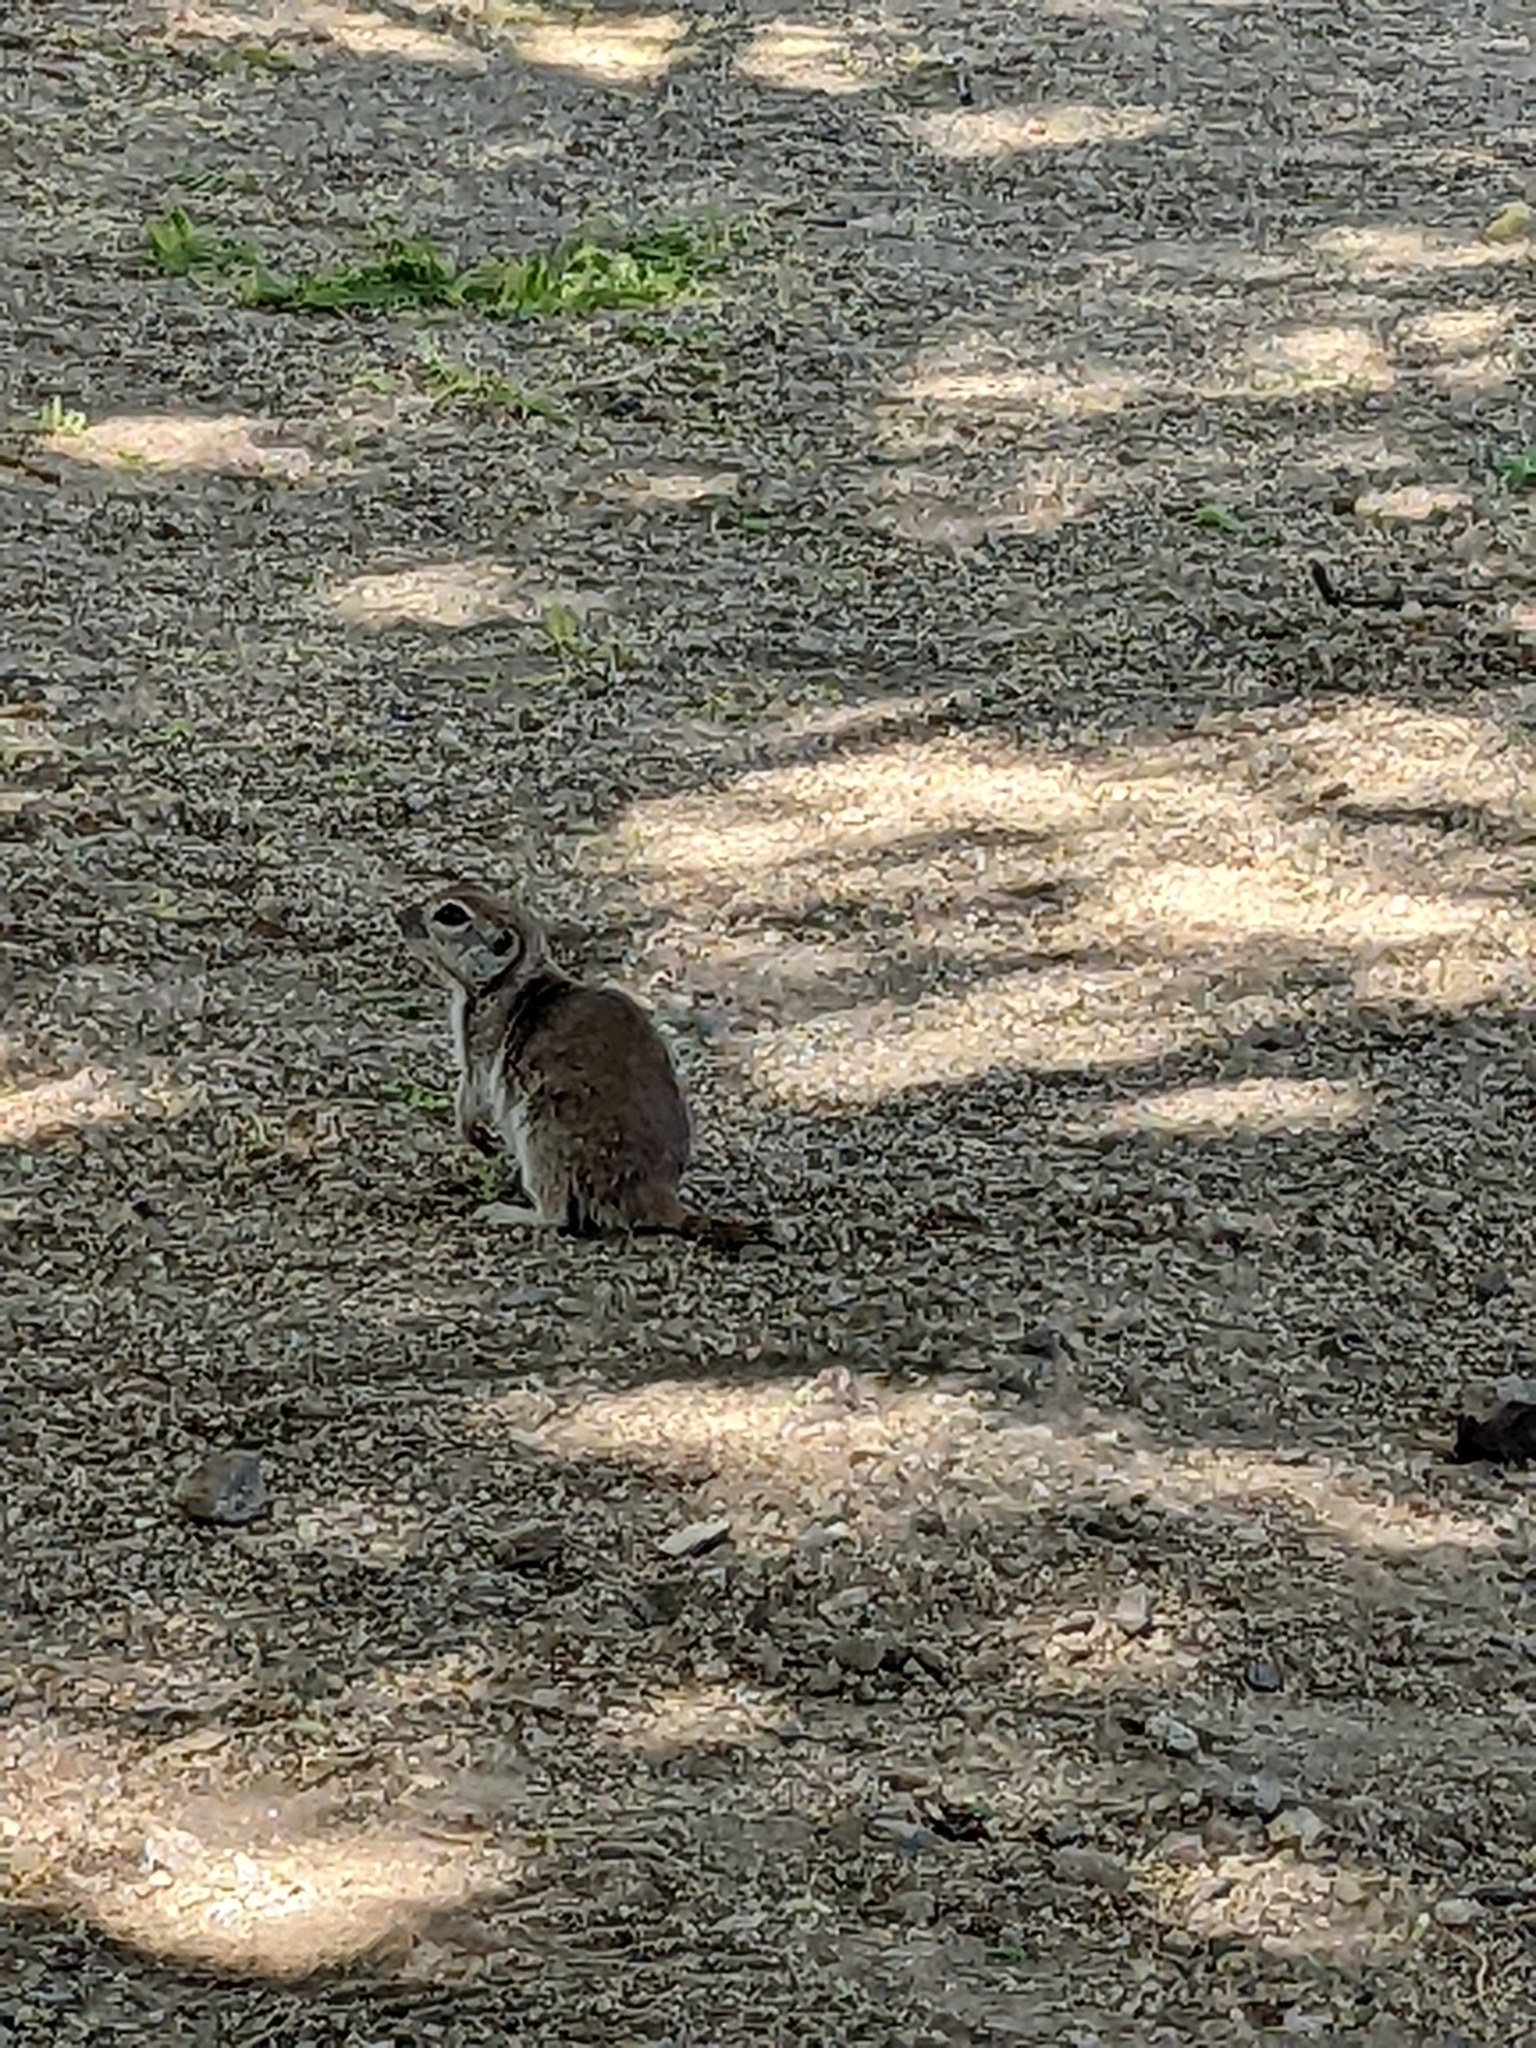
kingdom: Animalia
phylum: Chordata
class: Mammalia
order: Rodentia
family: Sciuridae
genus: Xerospermophilus
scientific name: Xerospermophilus tereticaudus
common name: Round-tailed ground squirrel
